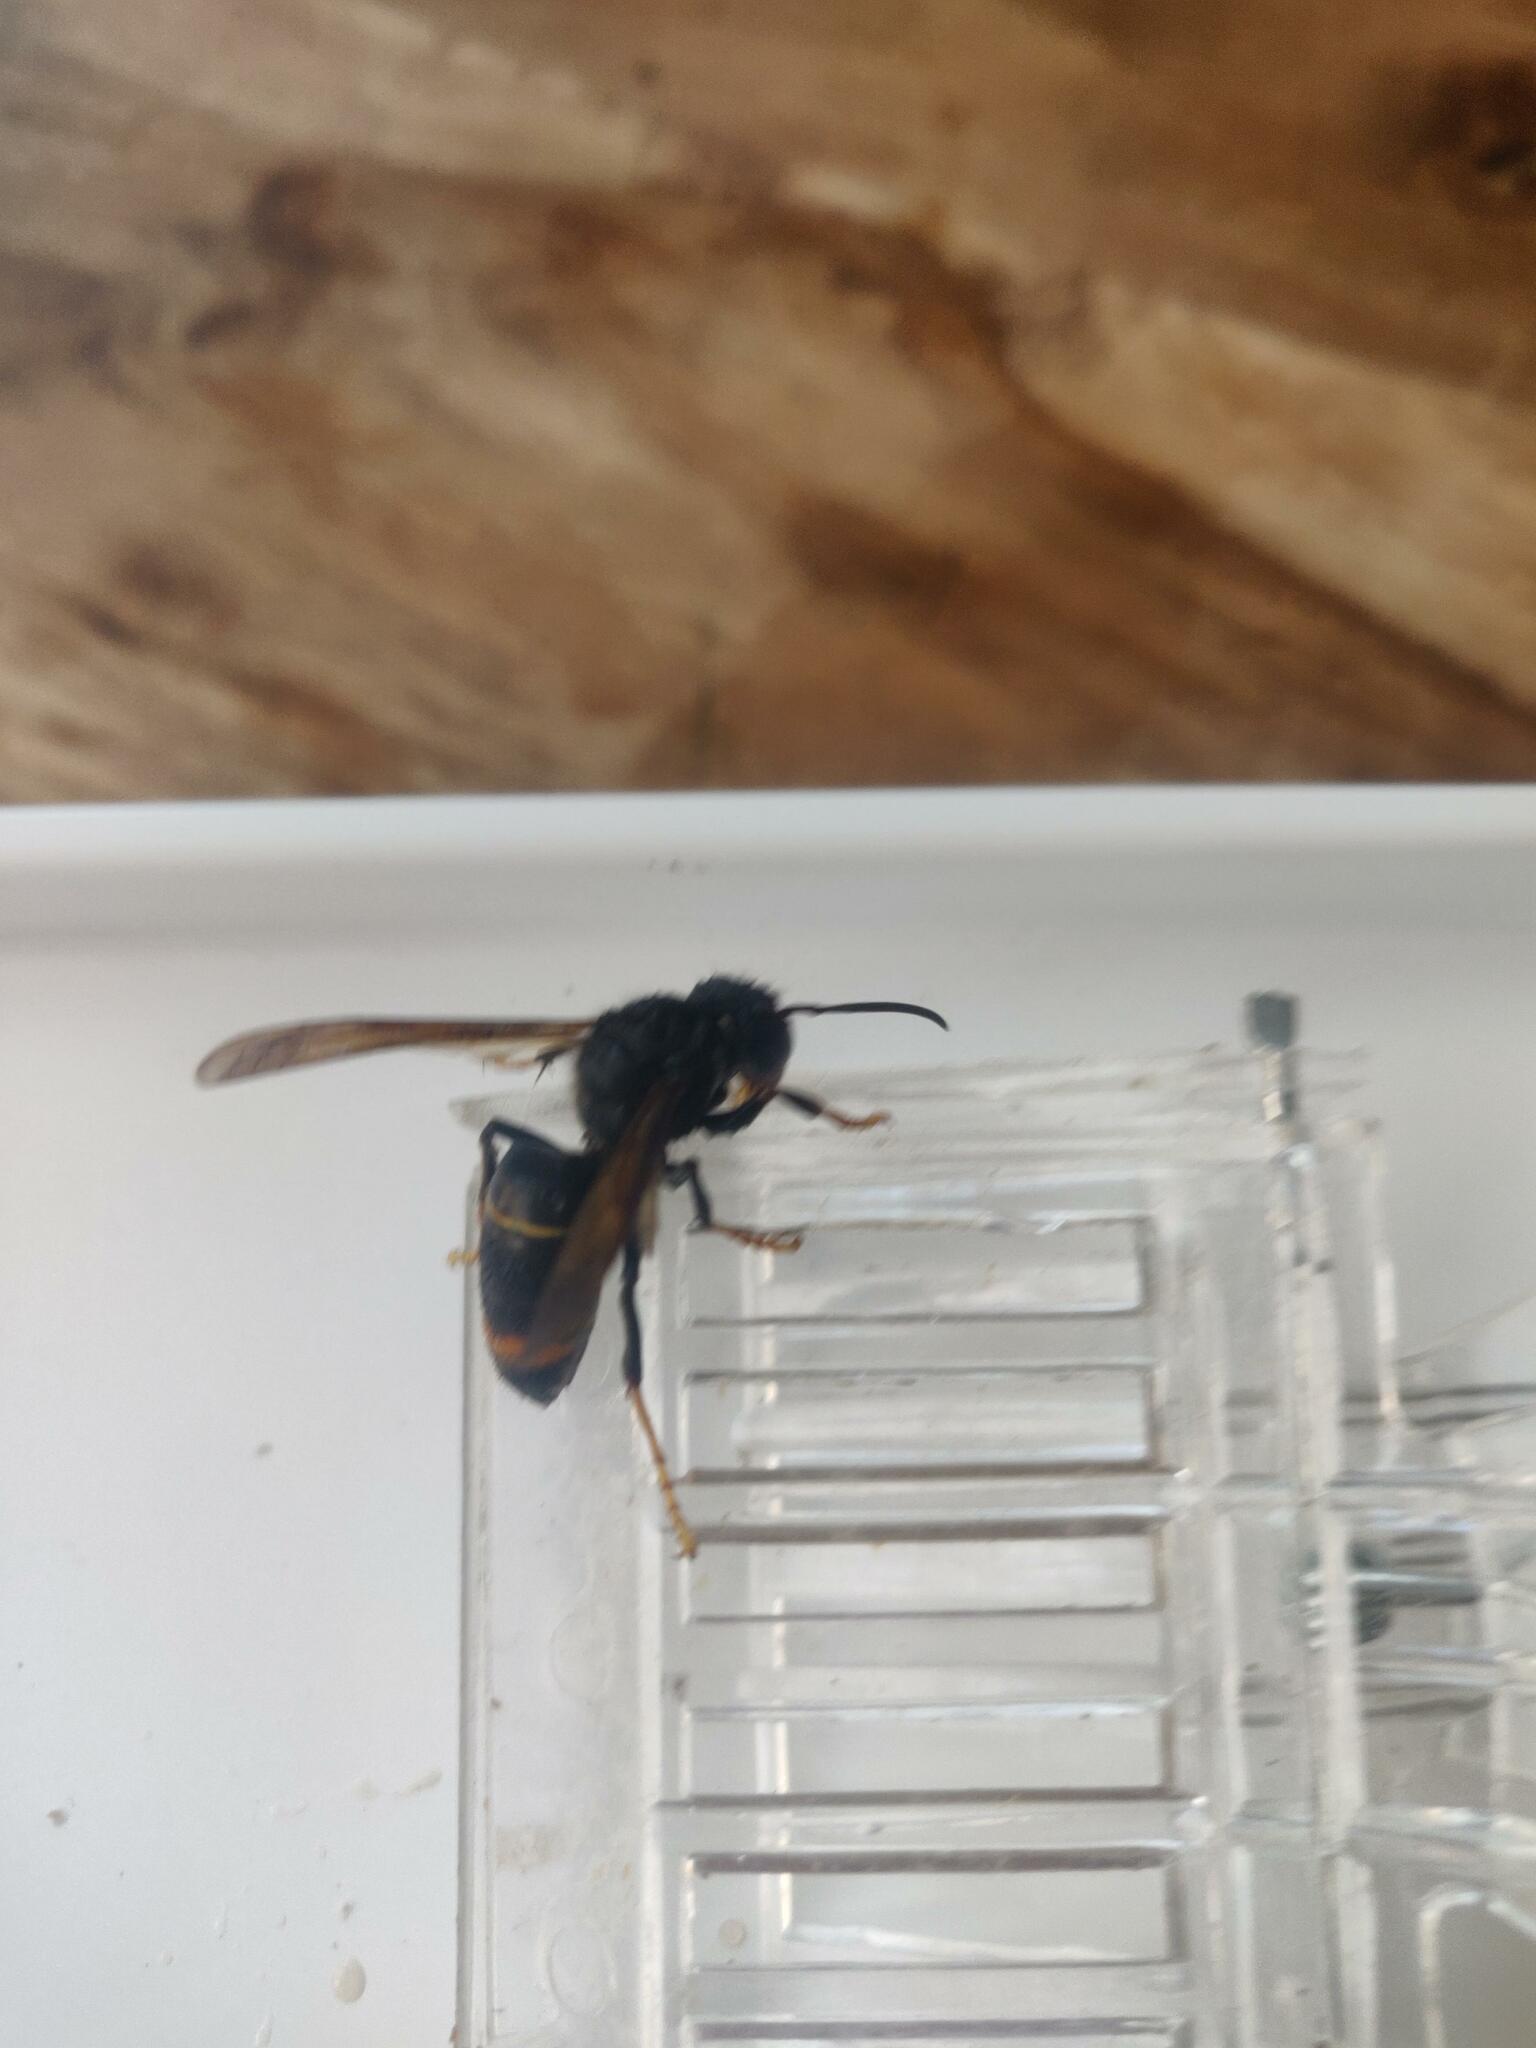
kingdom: Animalia
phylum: Arthropoda
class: Insecta
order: Hymenoptera
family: Vespidae
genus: Vespa
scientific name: Vespa velutina
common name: Asian hornet
